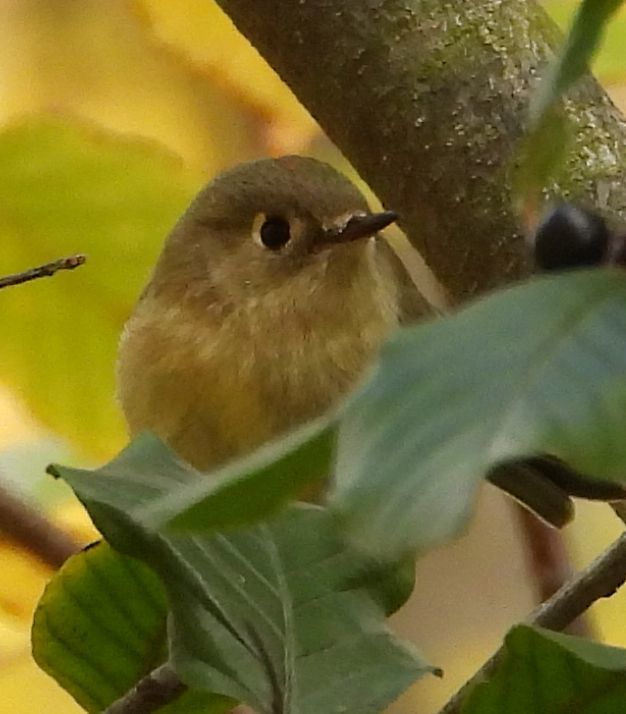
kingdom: Animalia
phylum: Chordata
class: Aves
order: Passeriformes
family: Regulidae
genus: Regulus
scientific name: Regulus calendula
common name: Ruby-crowned kinglet
